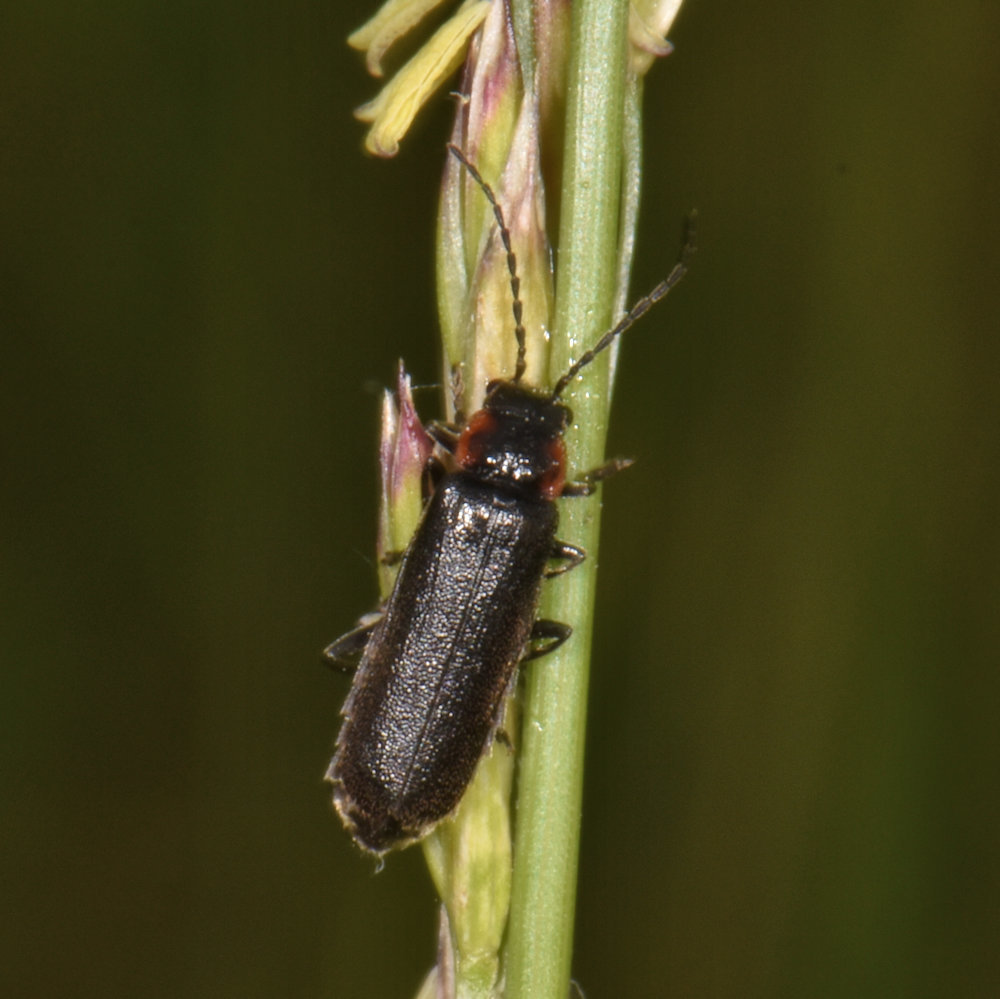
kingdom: Animalia
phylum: Arthropoda
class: Insecta
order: Coleoptera
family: Cleridae
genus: Placopterus
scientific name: Placopterus thoracicus
